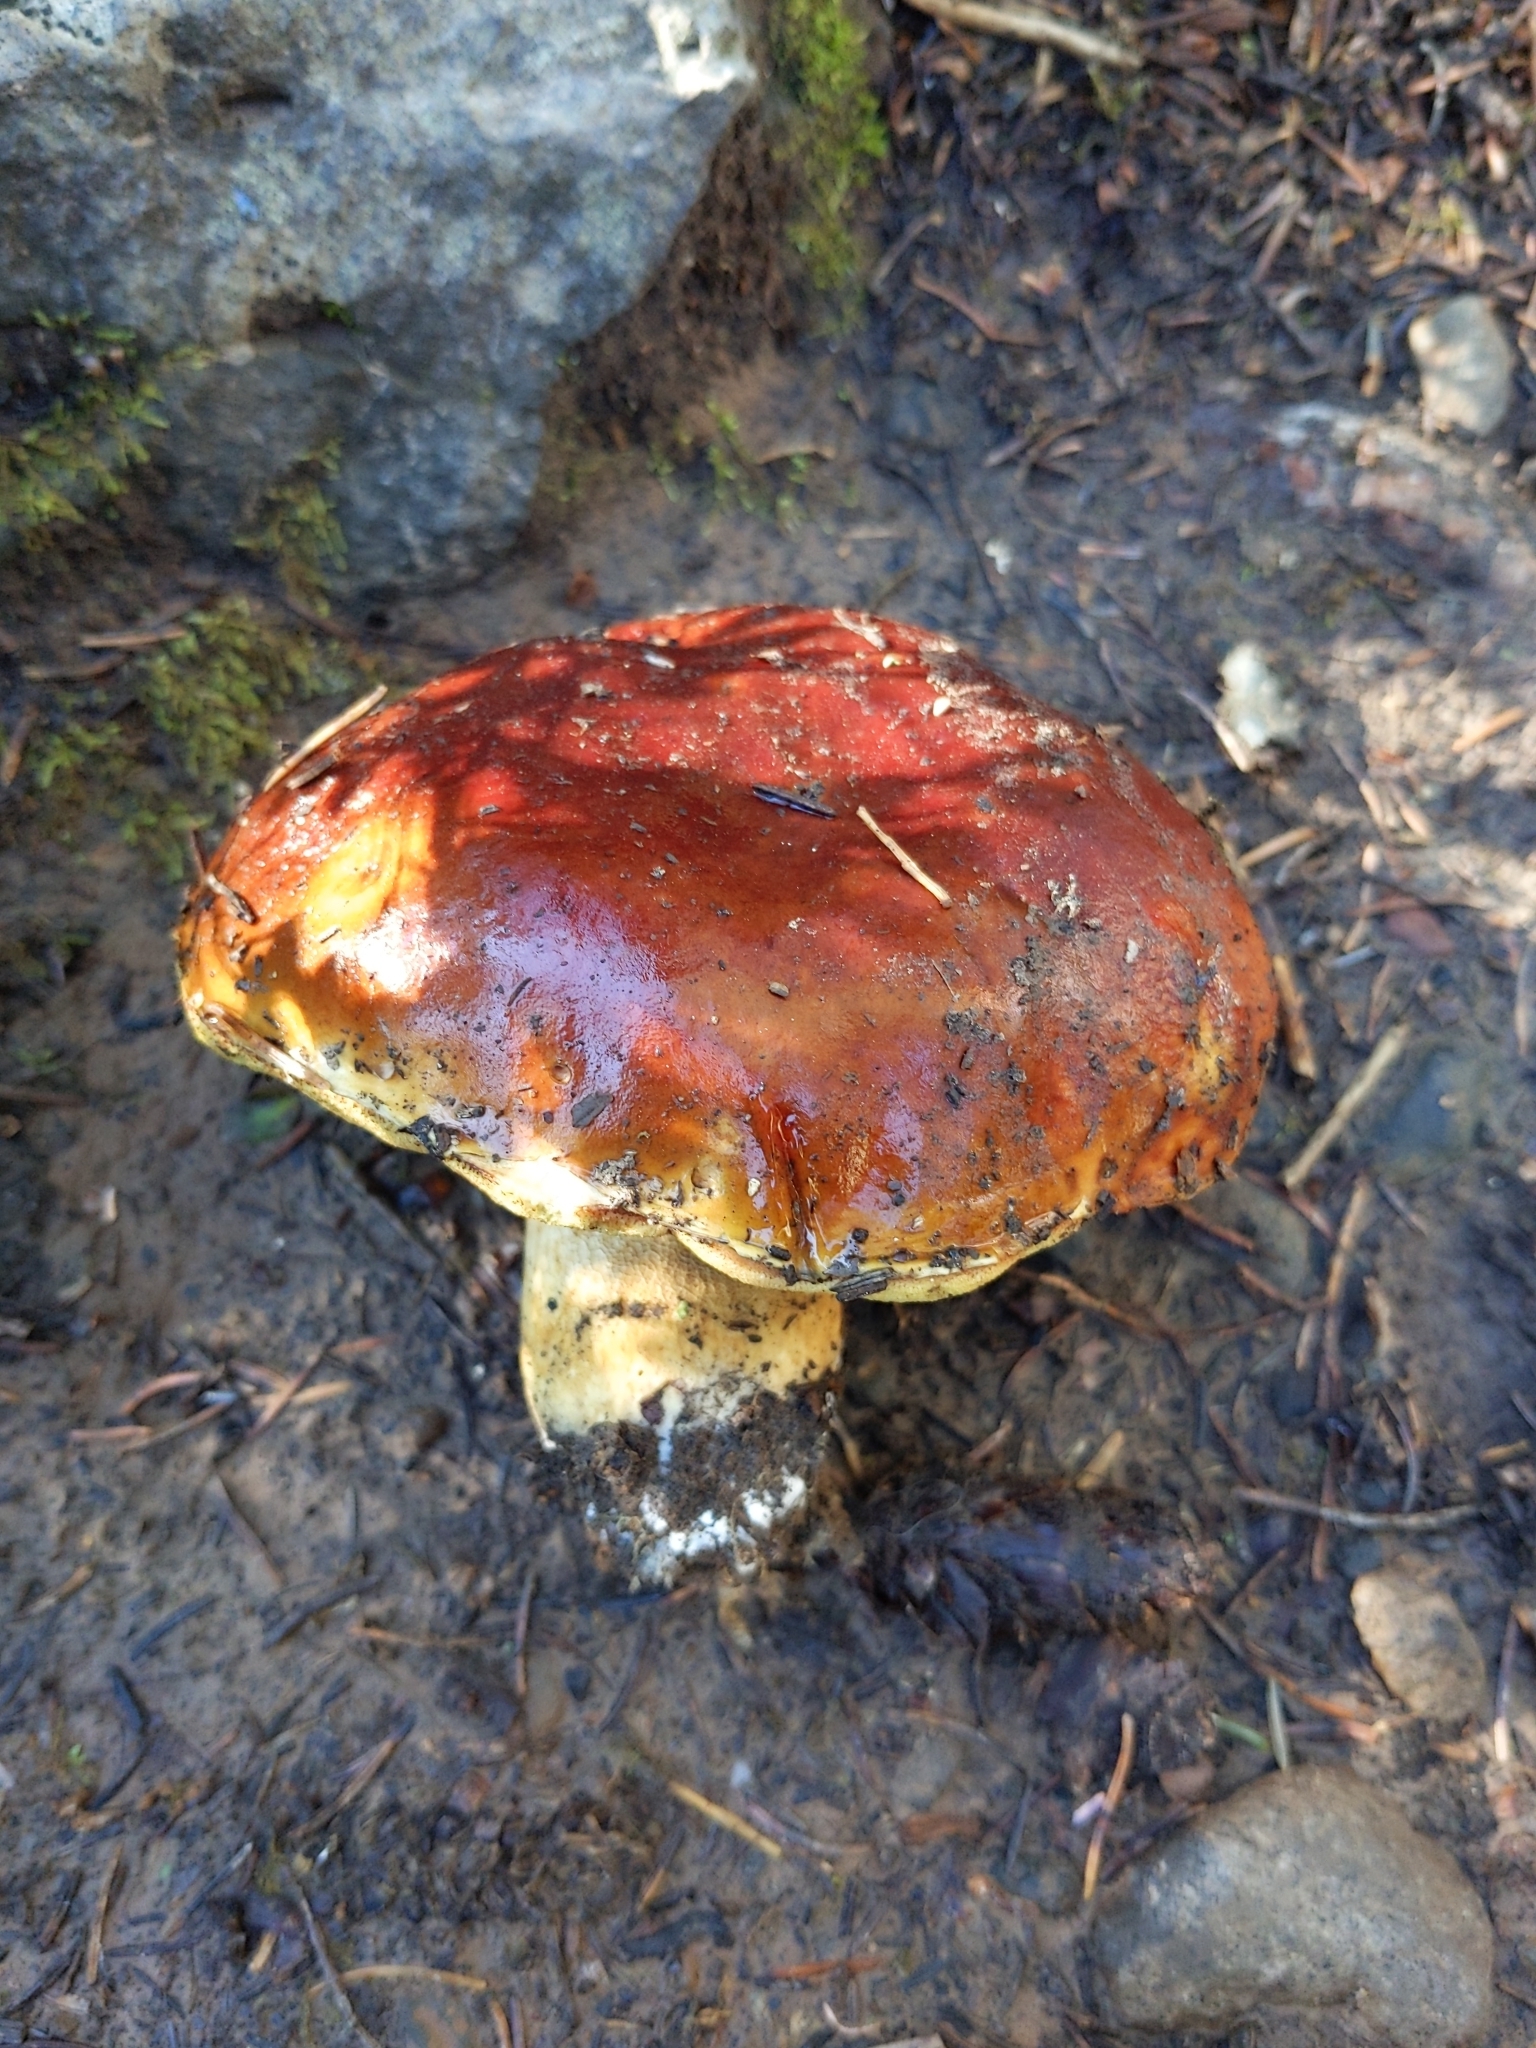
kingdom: Fungi
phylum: Basidiomycota
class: Agaricomycetes
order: Boletales
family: Boletaceae
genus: Boletus
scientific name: Boletus rubriceps
